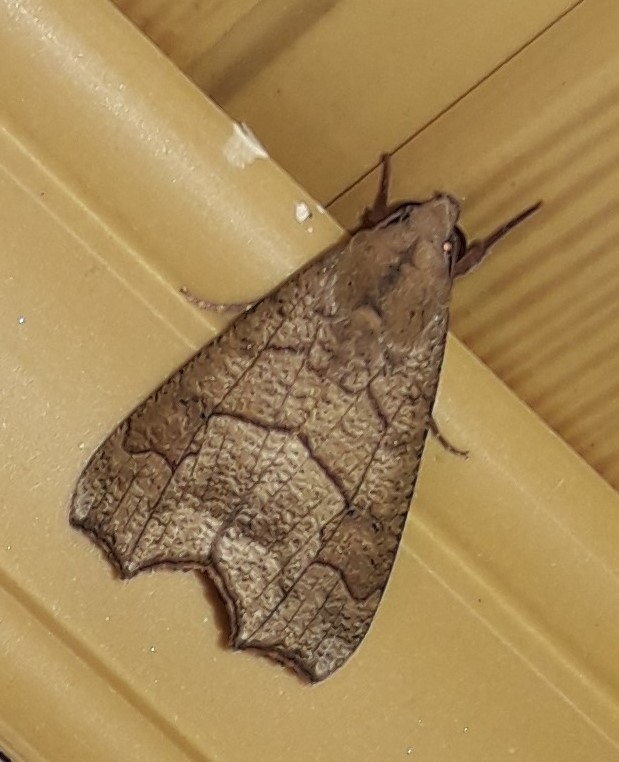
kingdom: Animalia
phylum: Arthropoda
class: Insecta
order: Lepidoptera
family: Erebidae
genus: Anomis
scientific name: Anomis editrix
